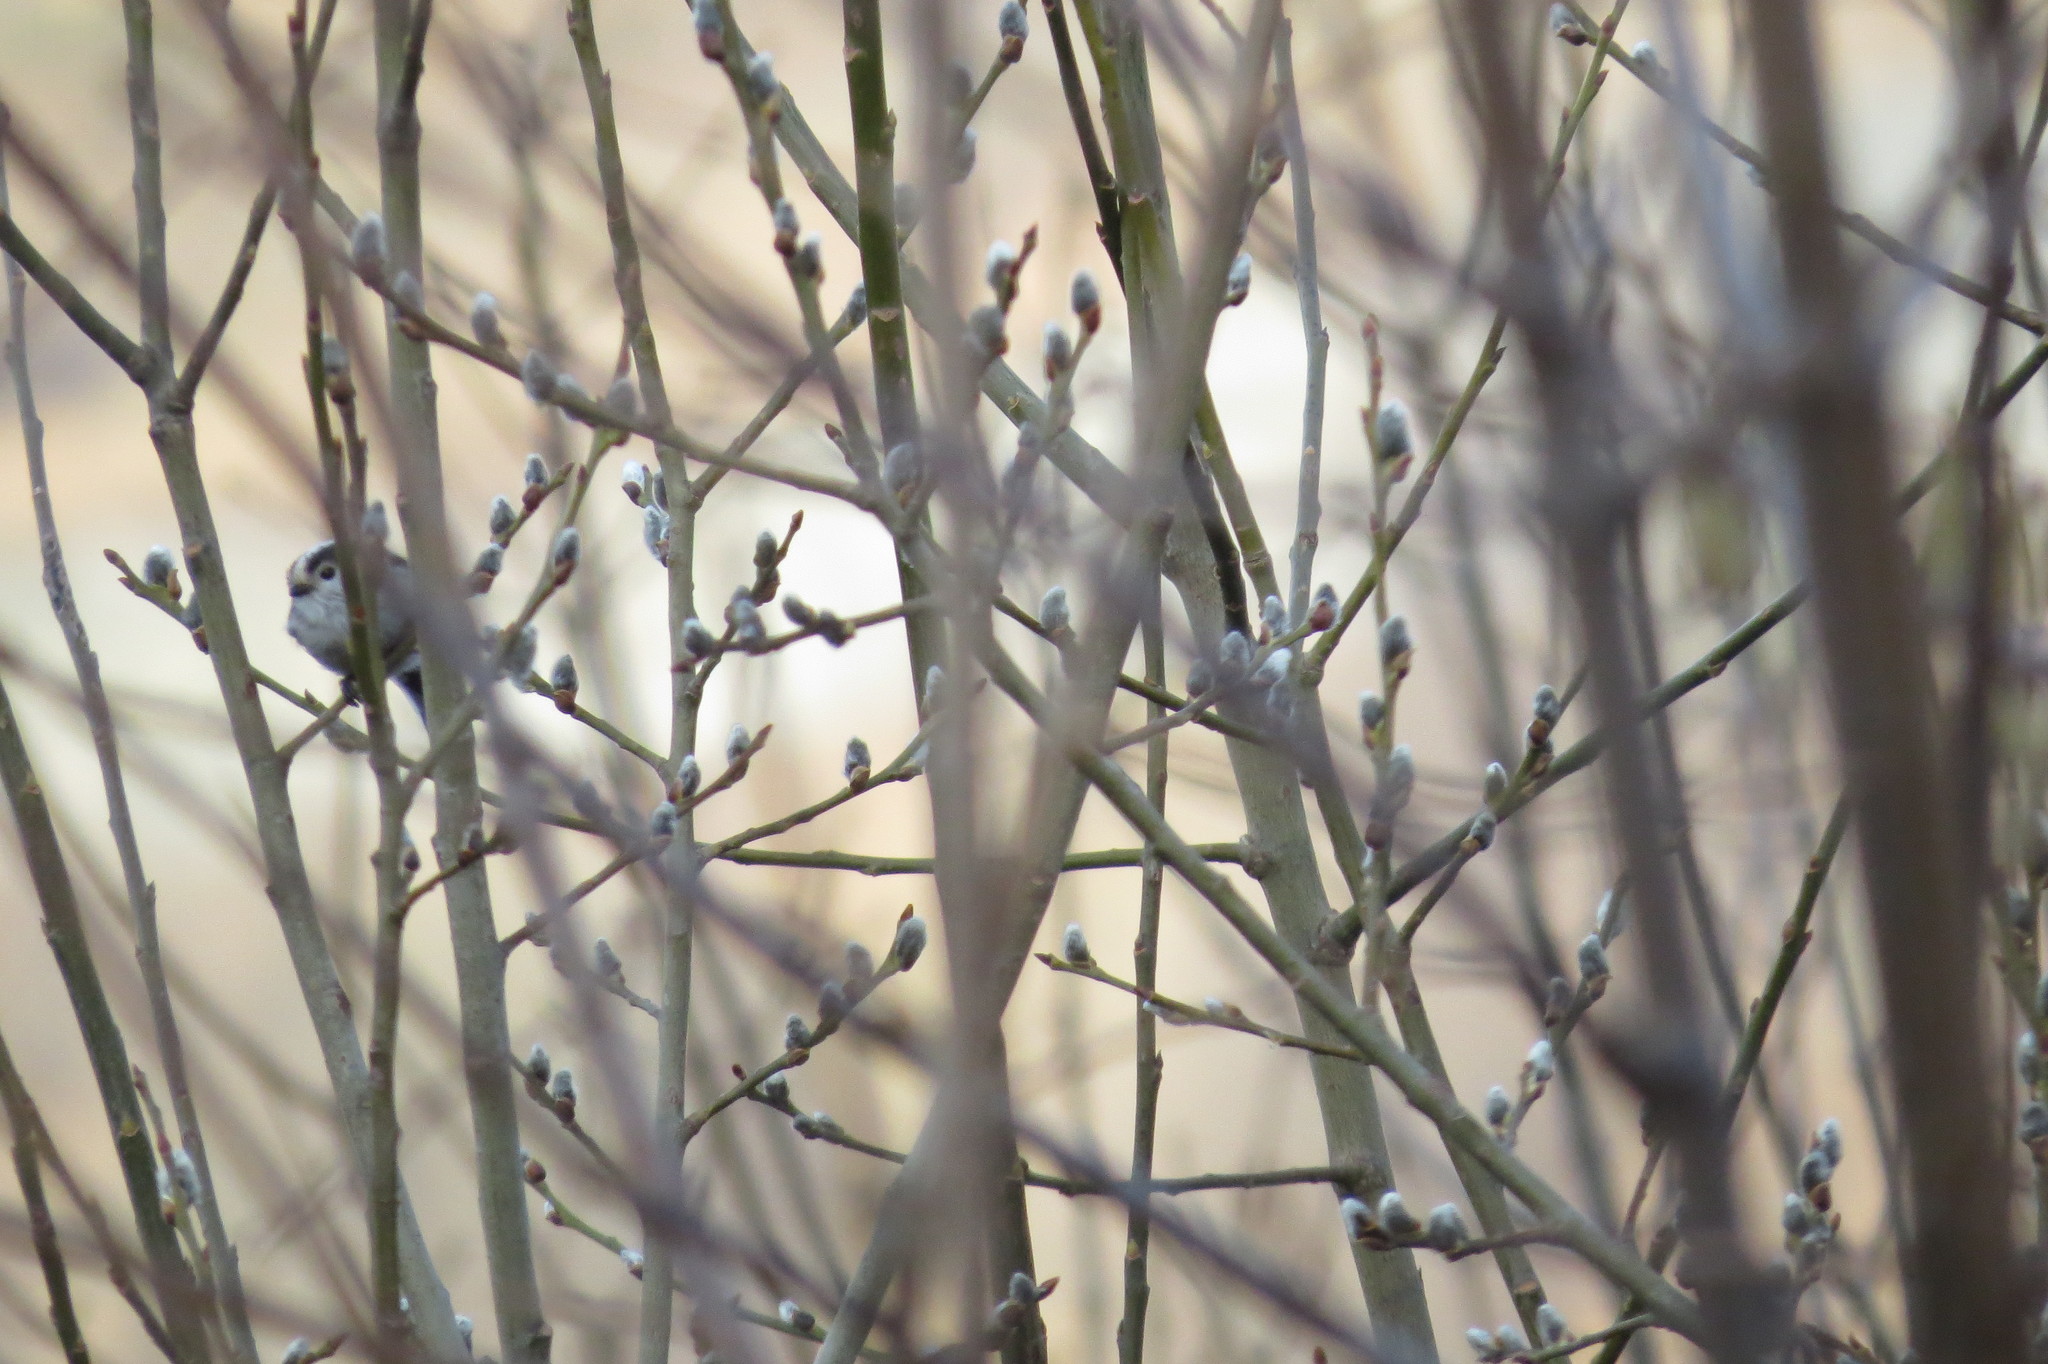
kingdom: Animalia
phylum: Chordata
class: Aves
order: Passeriformes
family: Aegithalidae
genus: Aegithalos
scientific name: Aegithalos caudatus
